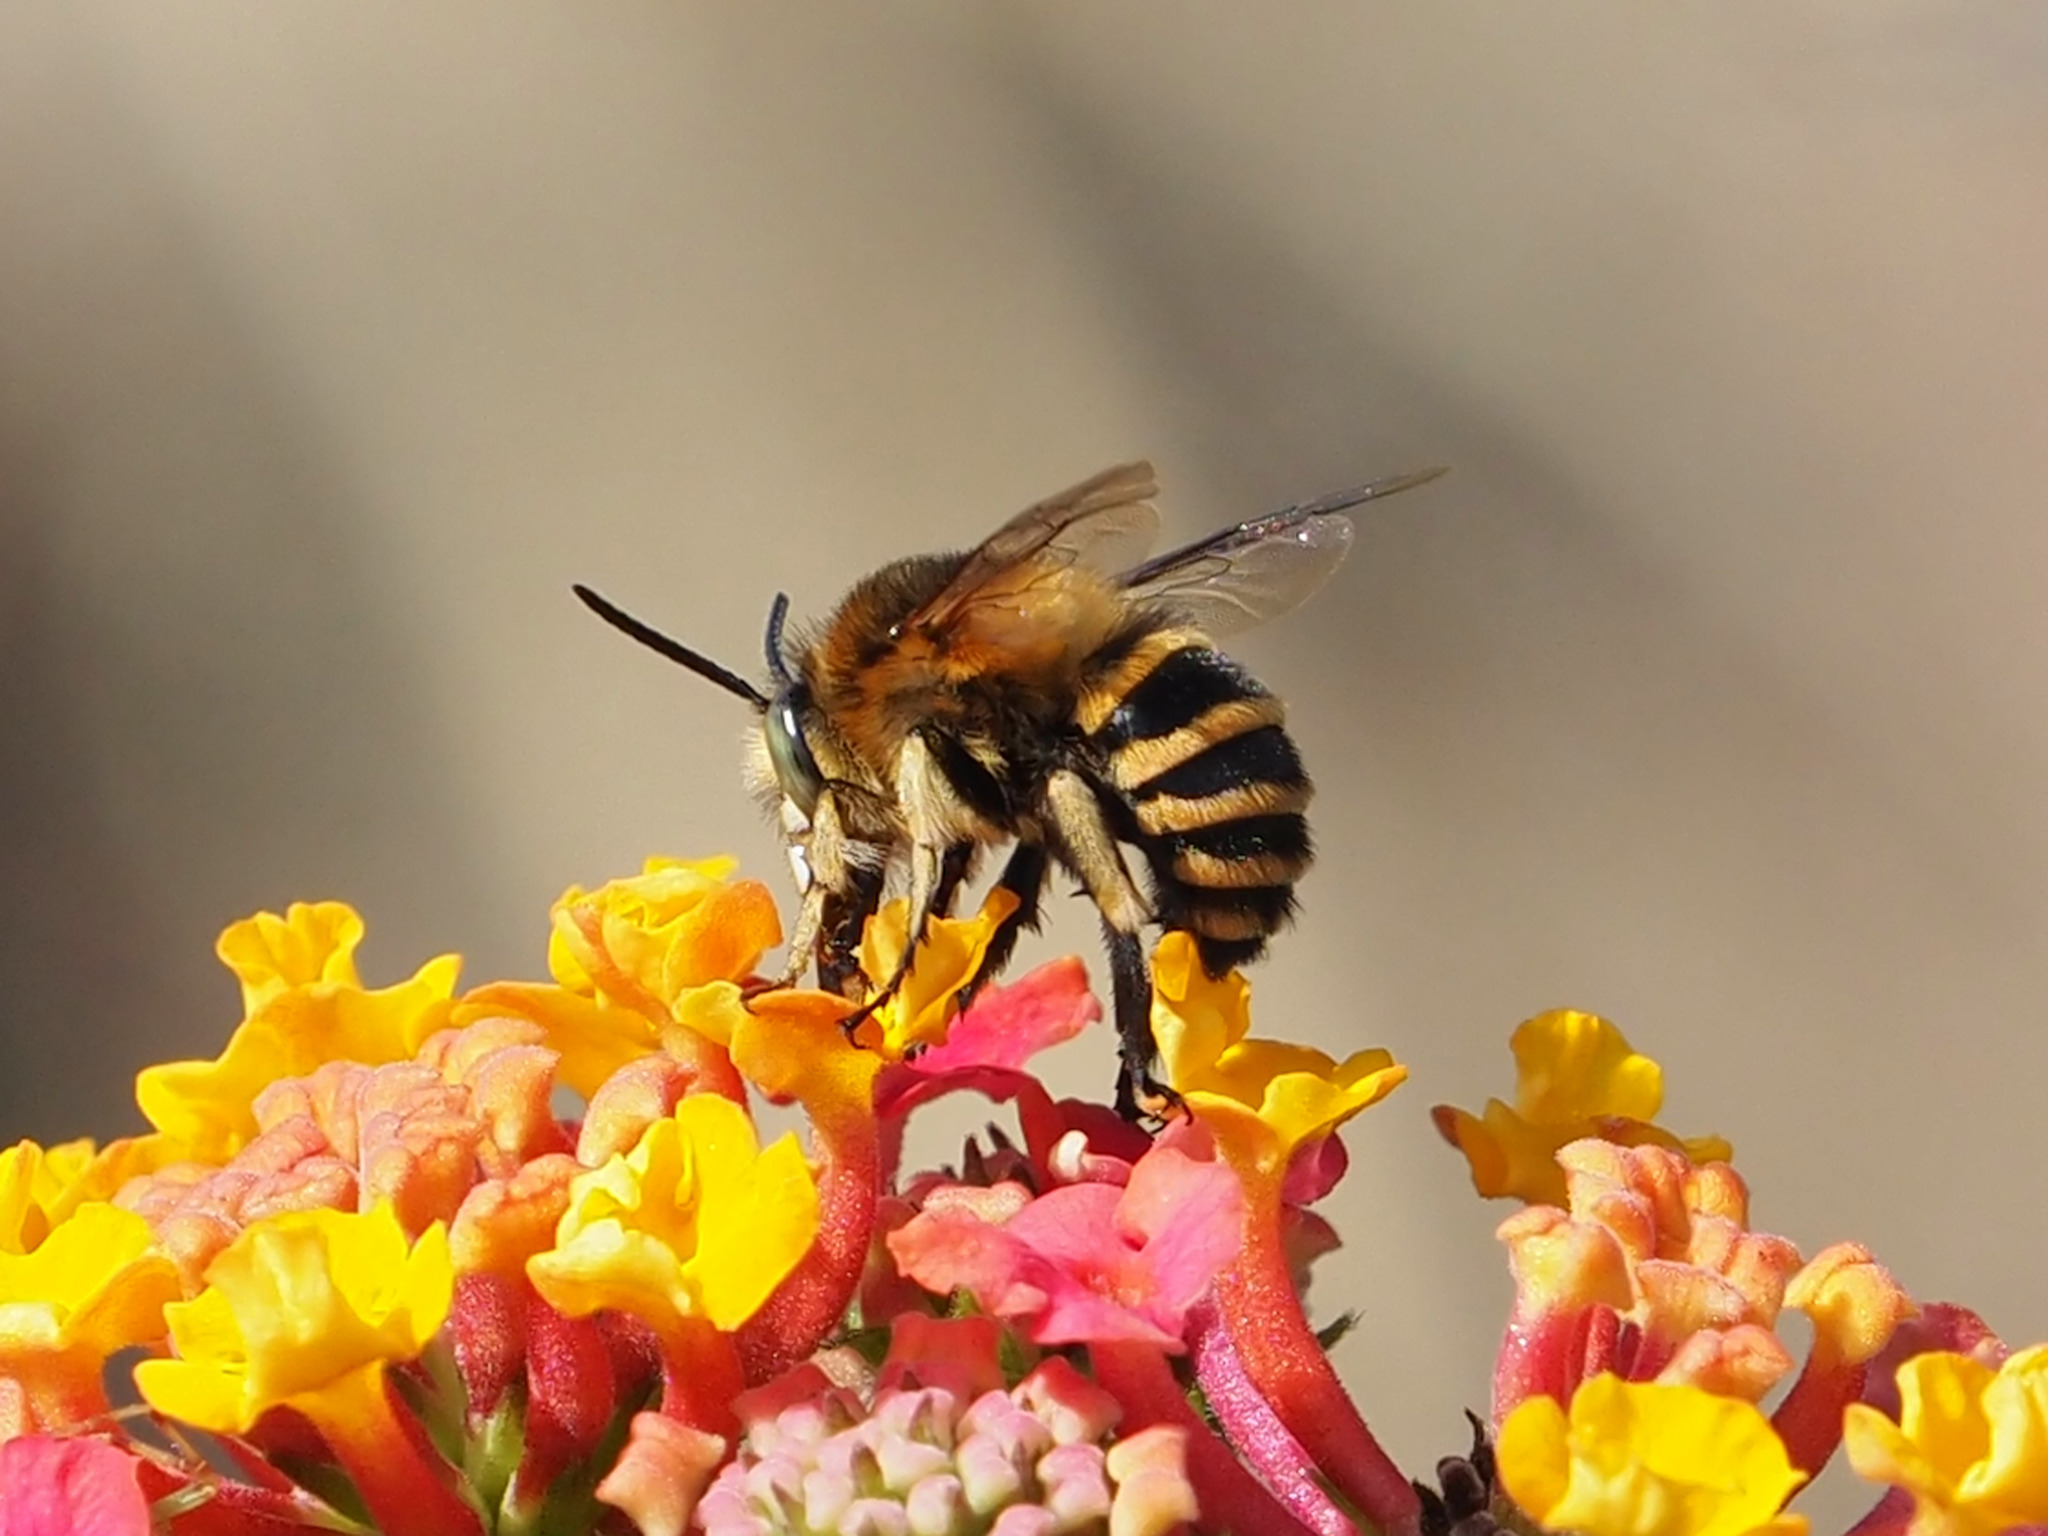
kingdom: Animalia
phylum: Arthropoda
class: Insecta
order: Hymenoptera
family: Apidae
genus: Amegilla
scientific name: Amegilla quadrifasciata
